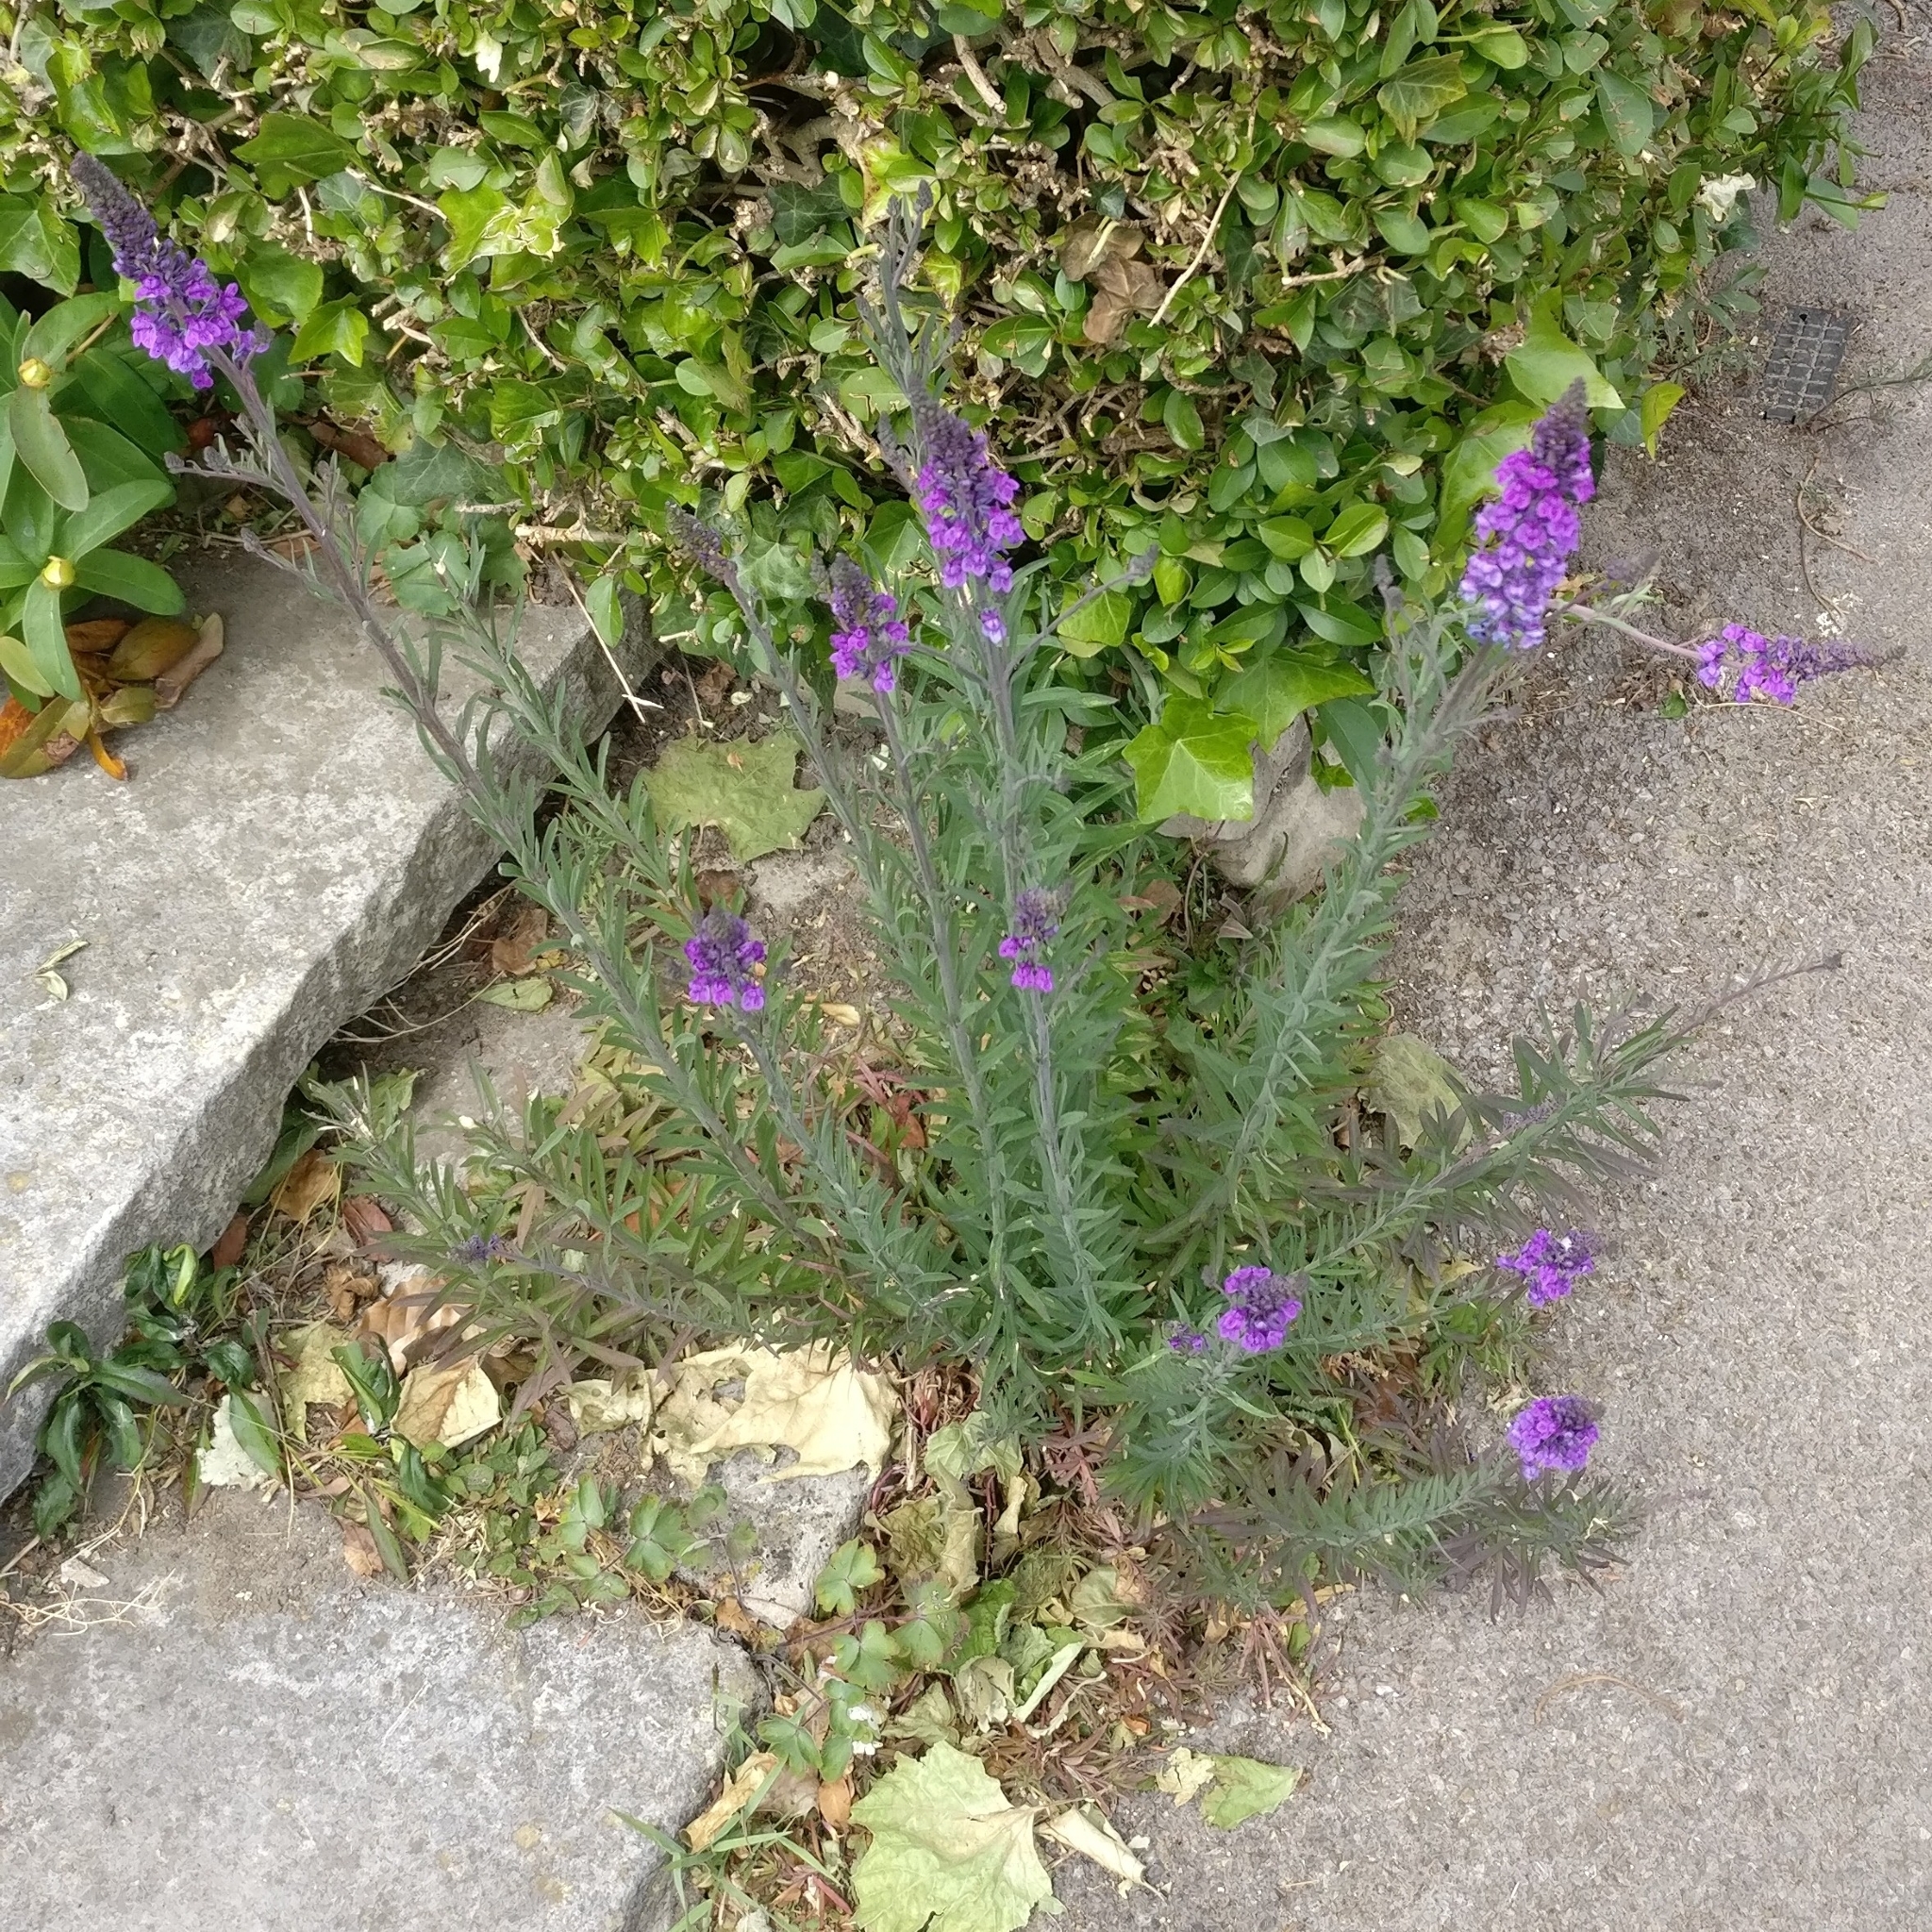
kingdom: Plantae
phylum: Tracheophyta
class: Magnoliopsida
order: Lamiales
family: Plantaginaceae
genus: Linaria
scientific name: Linaria purpurea
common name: Purple toadflax
